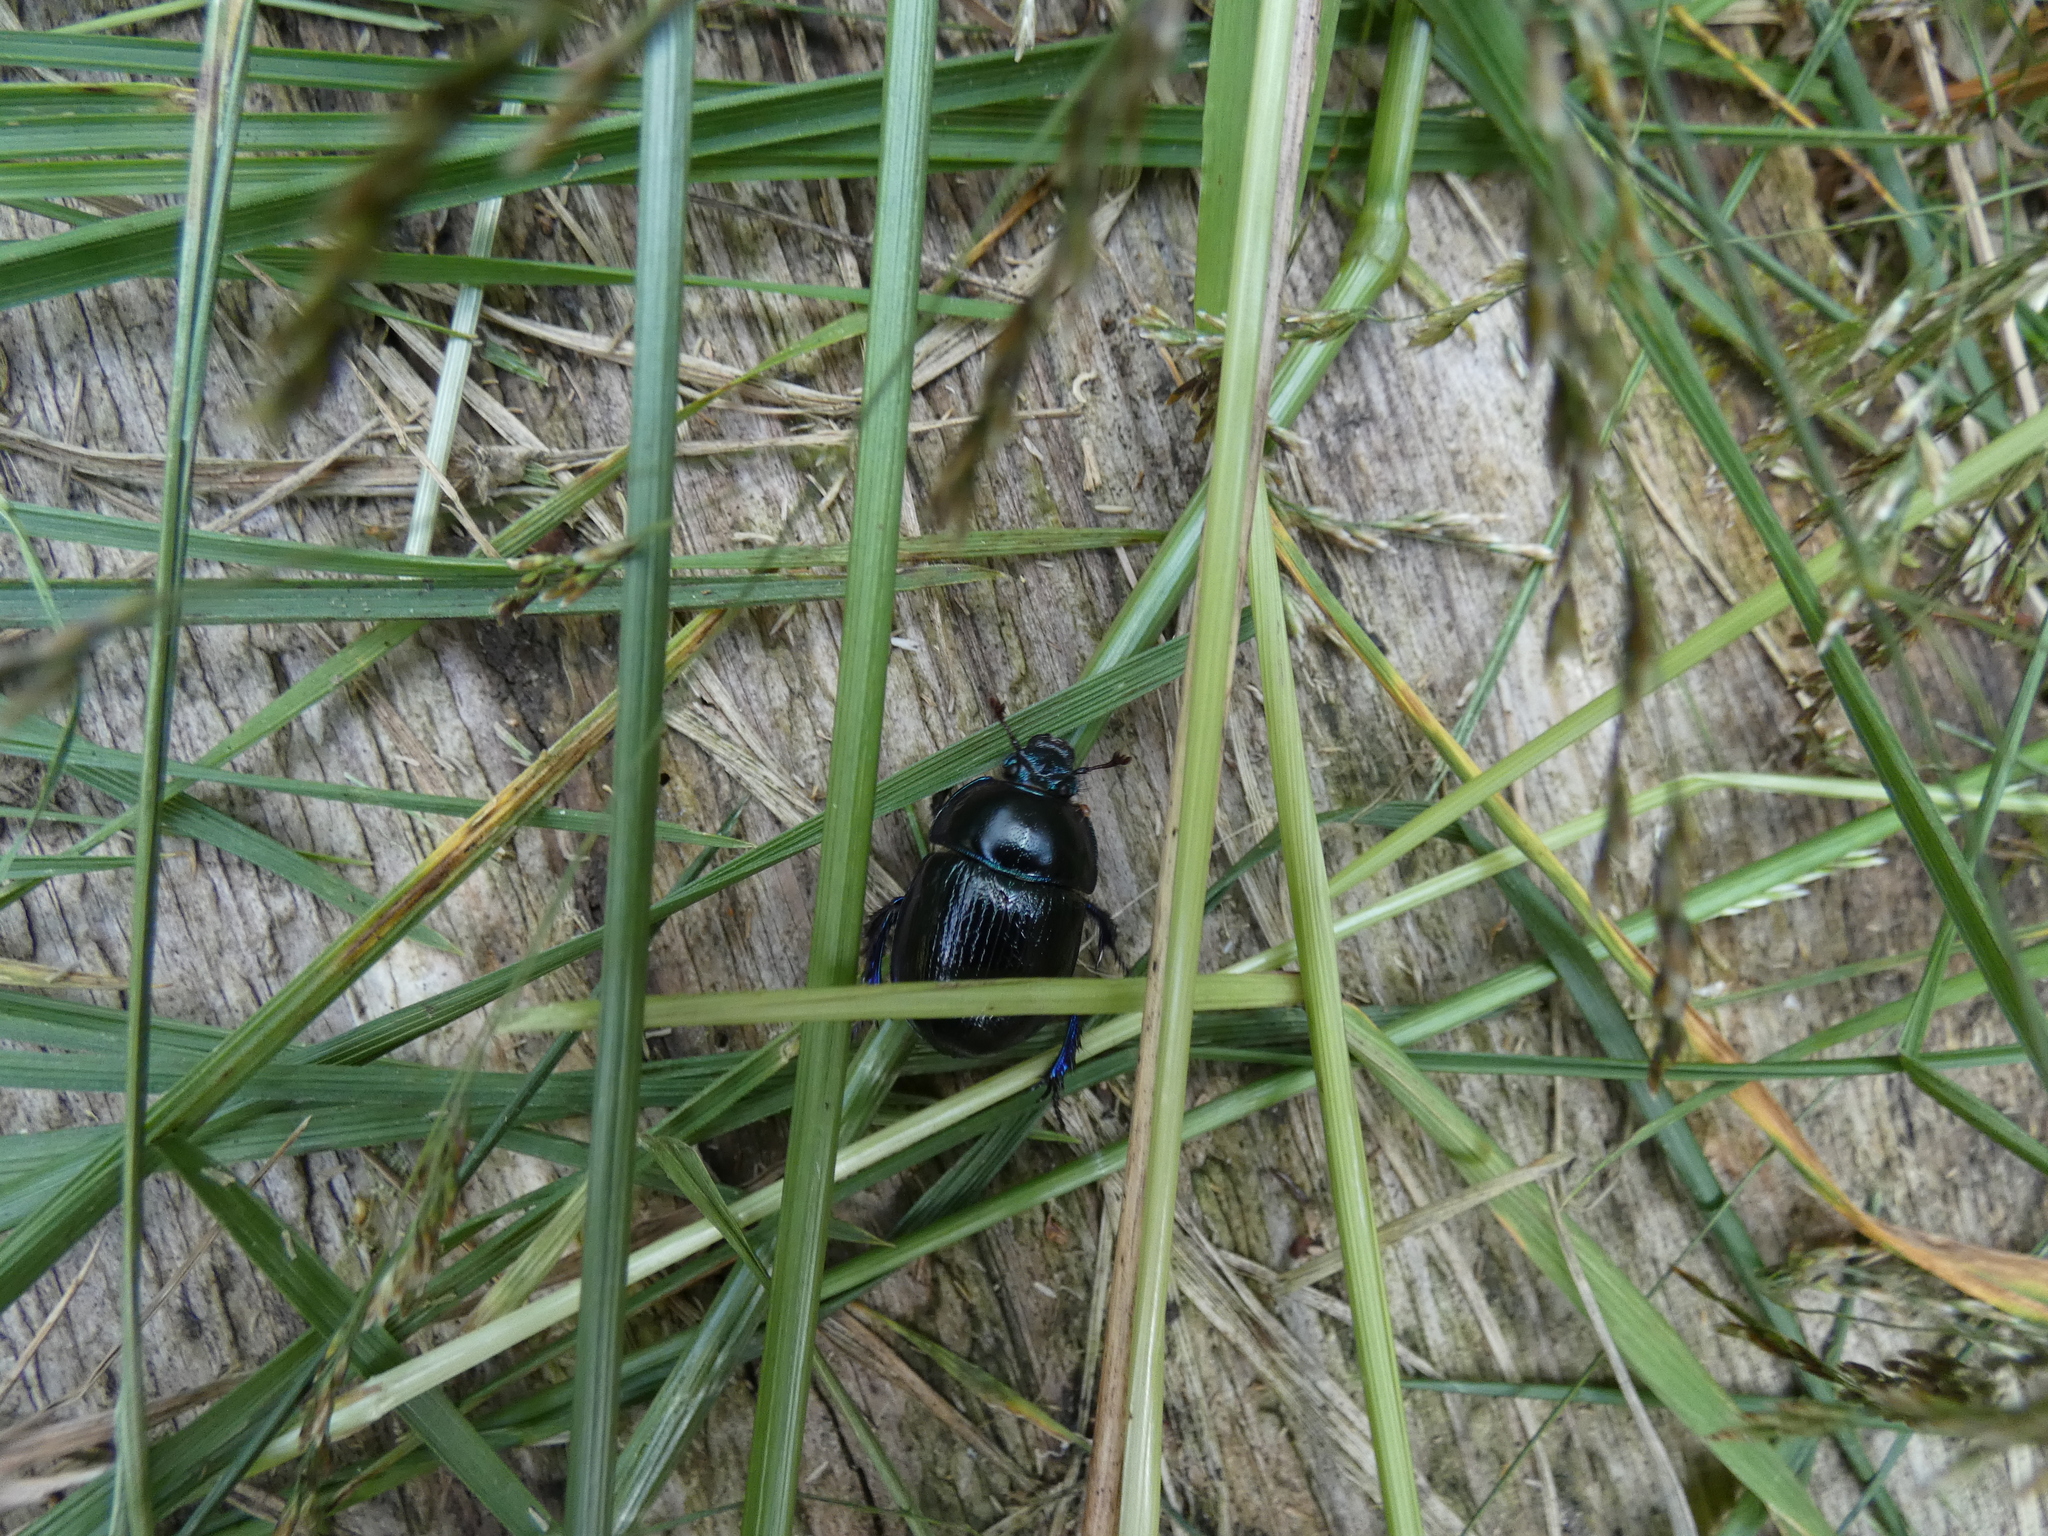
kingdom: Animalia
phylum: Arthropoda
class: Insecta
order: Coleoptera
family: Geotrupidae
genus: Anoplotrupes
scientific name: Anoplotrupes stercorosus
